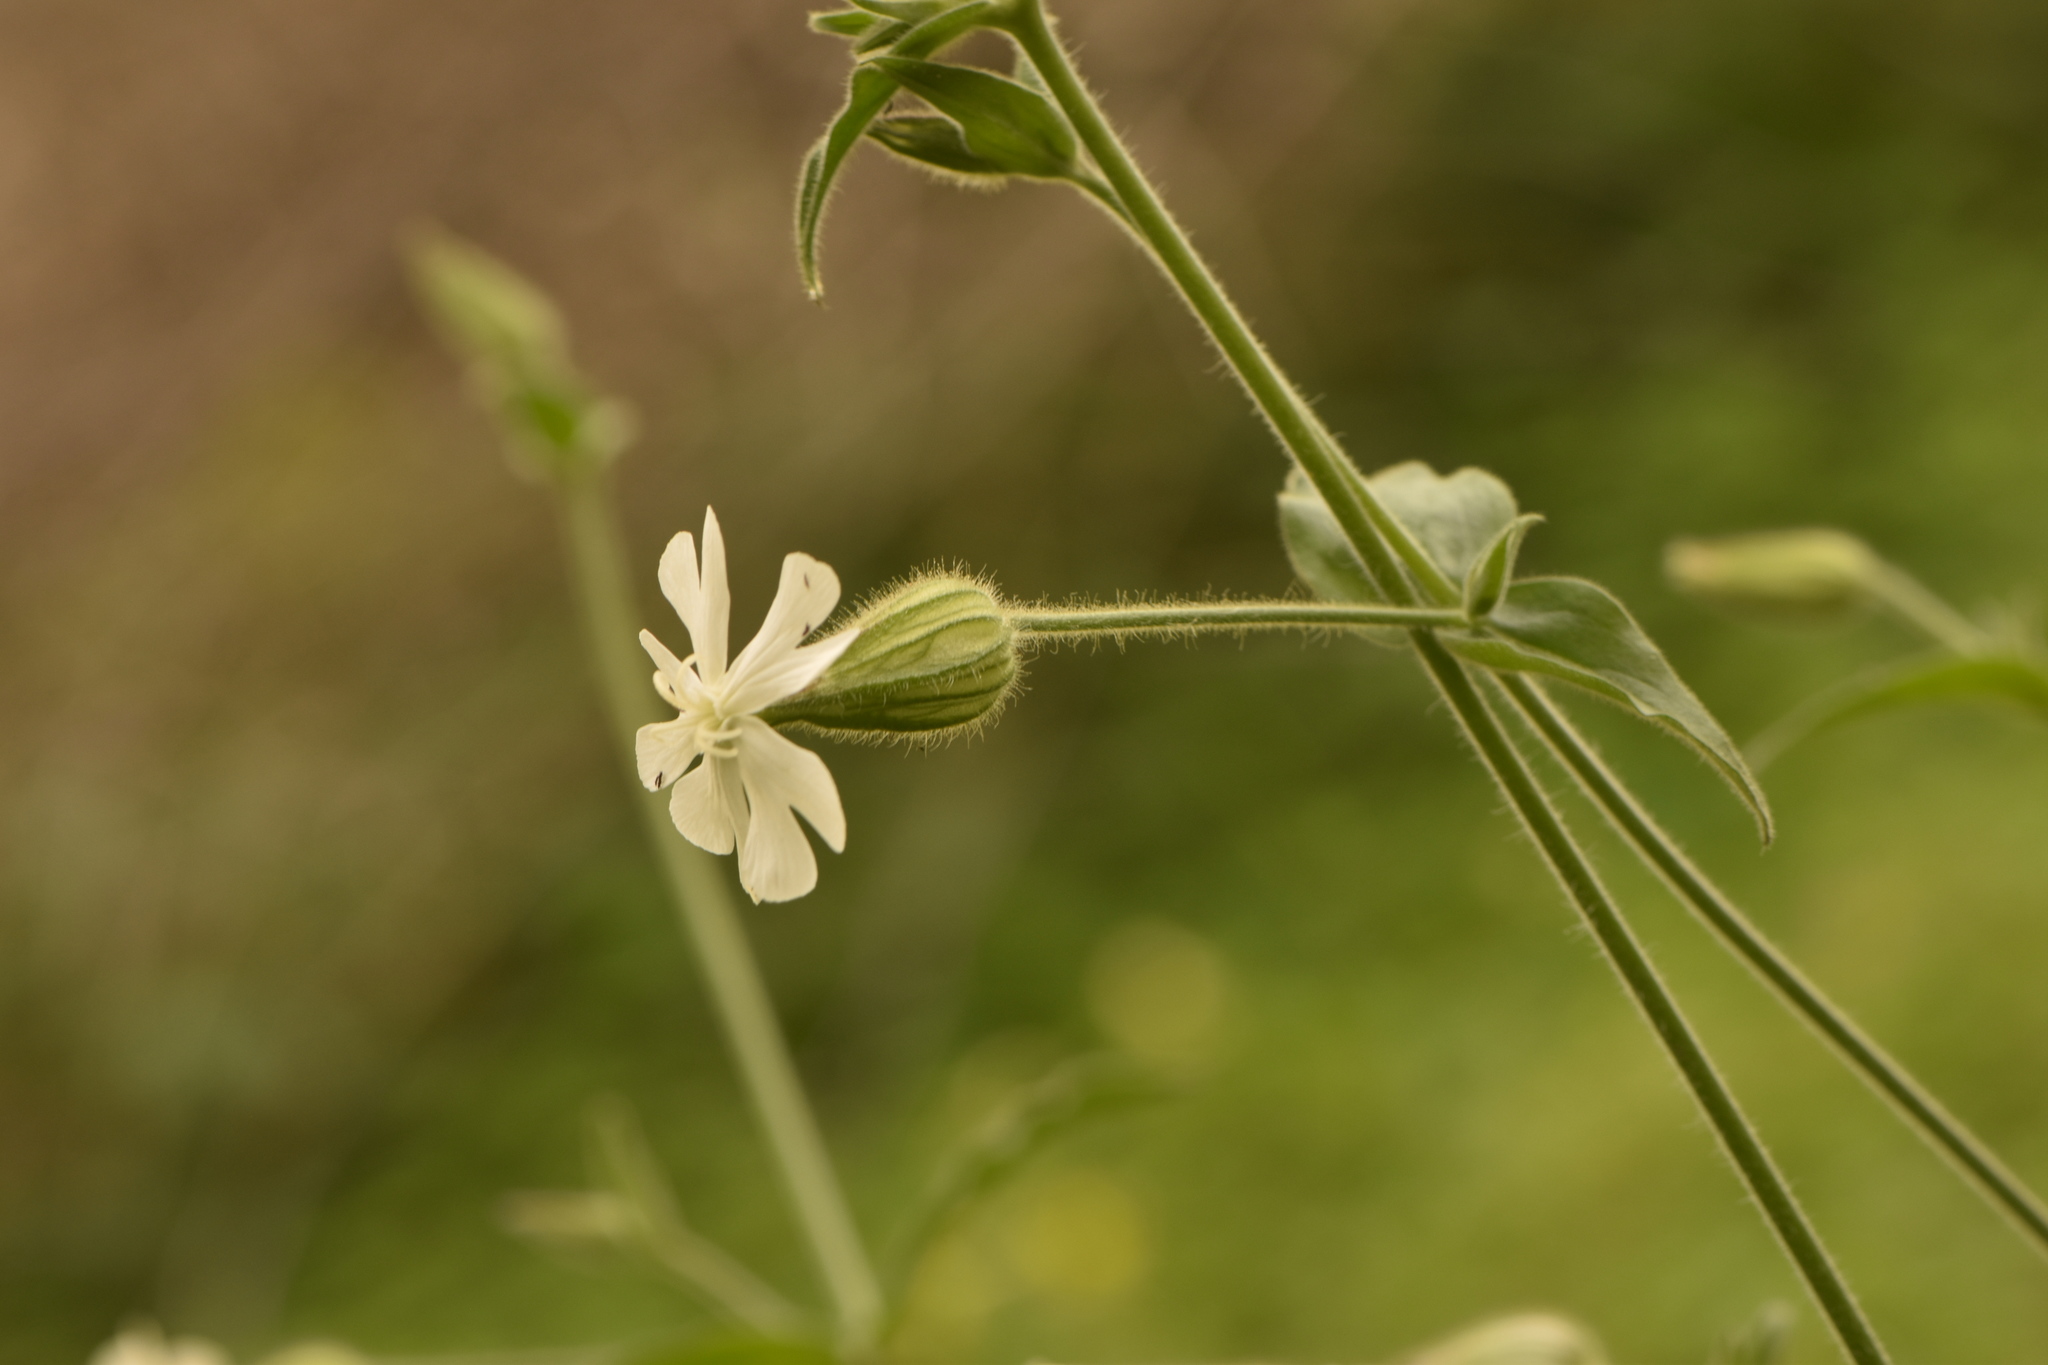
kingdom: Plantae
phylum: Tracheophyta
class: Magnoliopsida
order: Caryophyllales
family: Caryophyllaceae
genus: Silene
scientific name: Silene latifolia
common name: White campion
